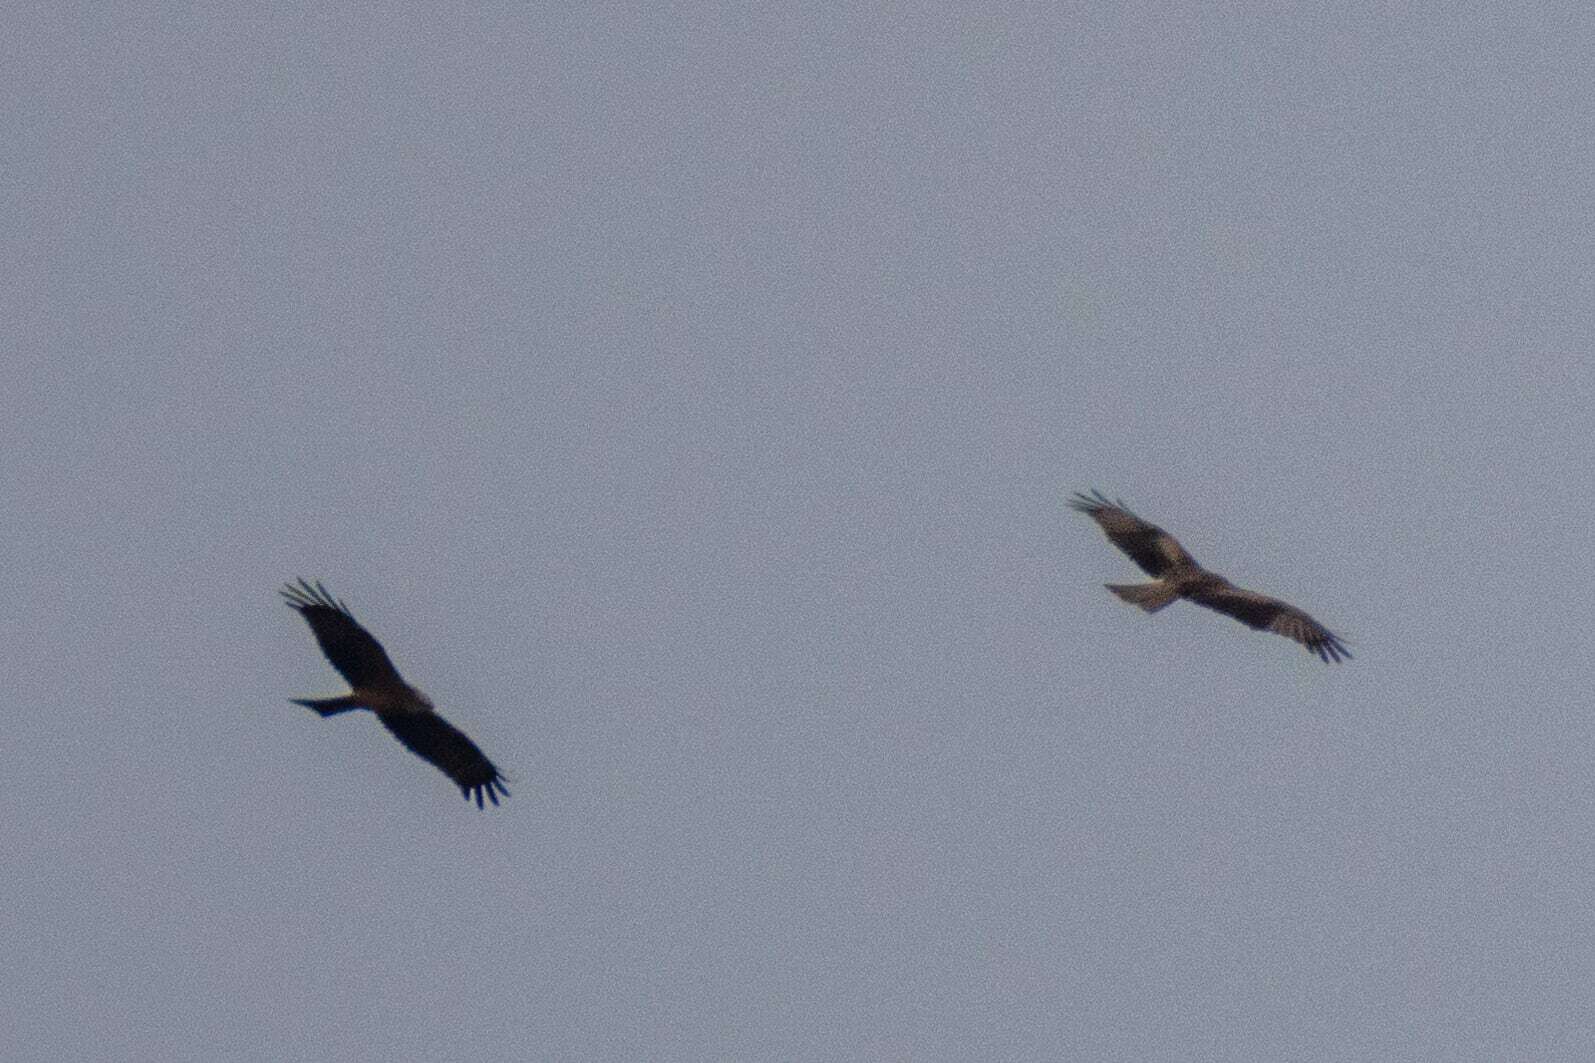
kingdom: Animalia
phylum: Chordata
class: Aves
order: Accipitriformes
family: Accipitridae
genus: Milvus
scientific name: Milvus migrans
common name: Black kite
